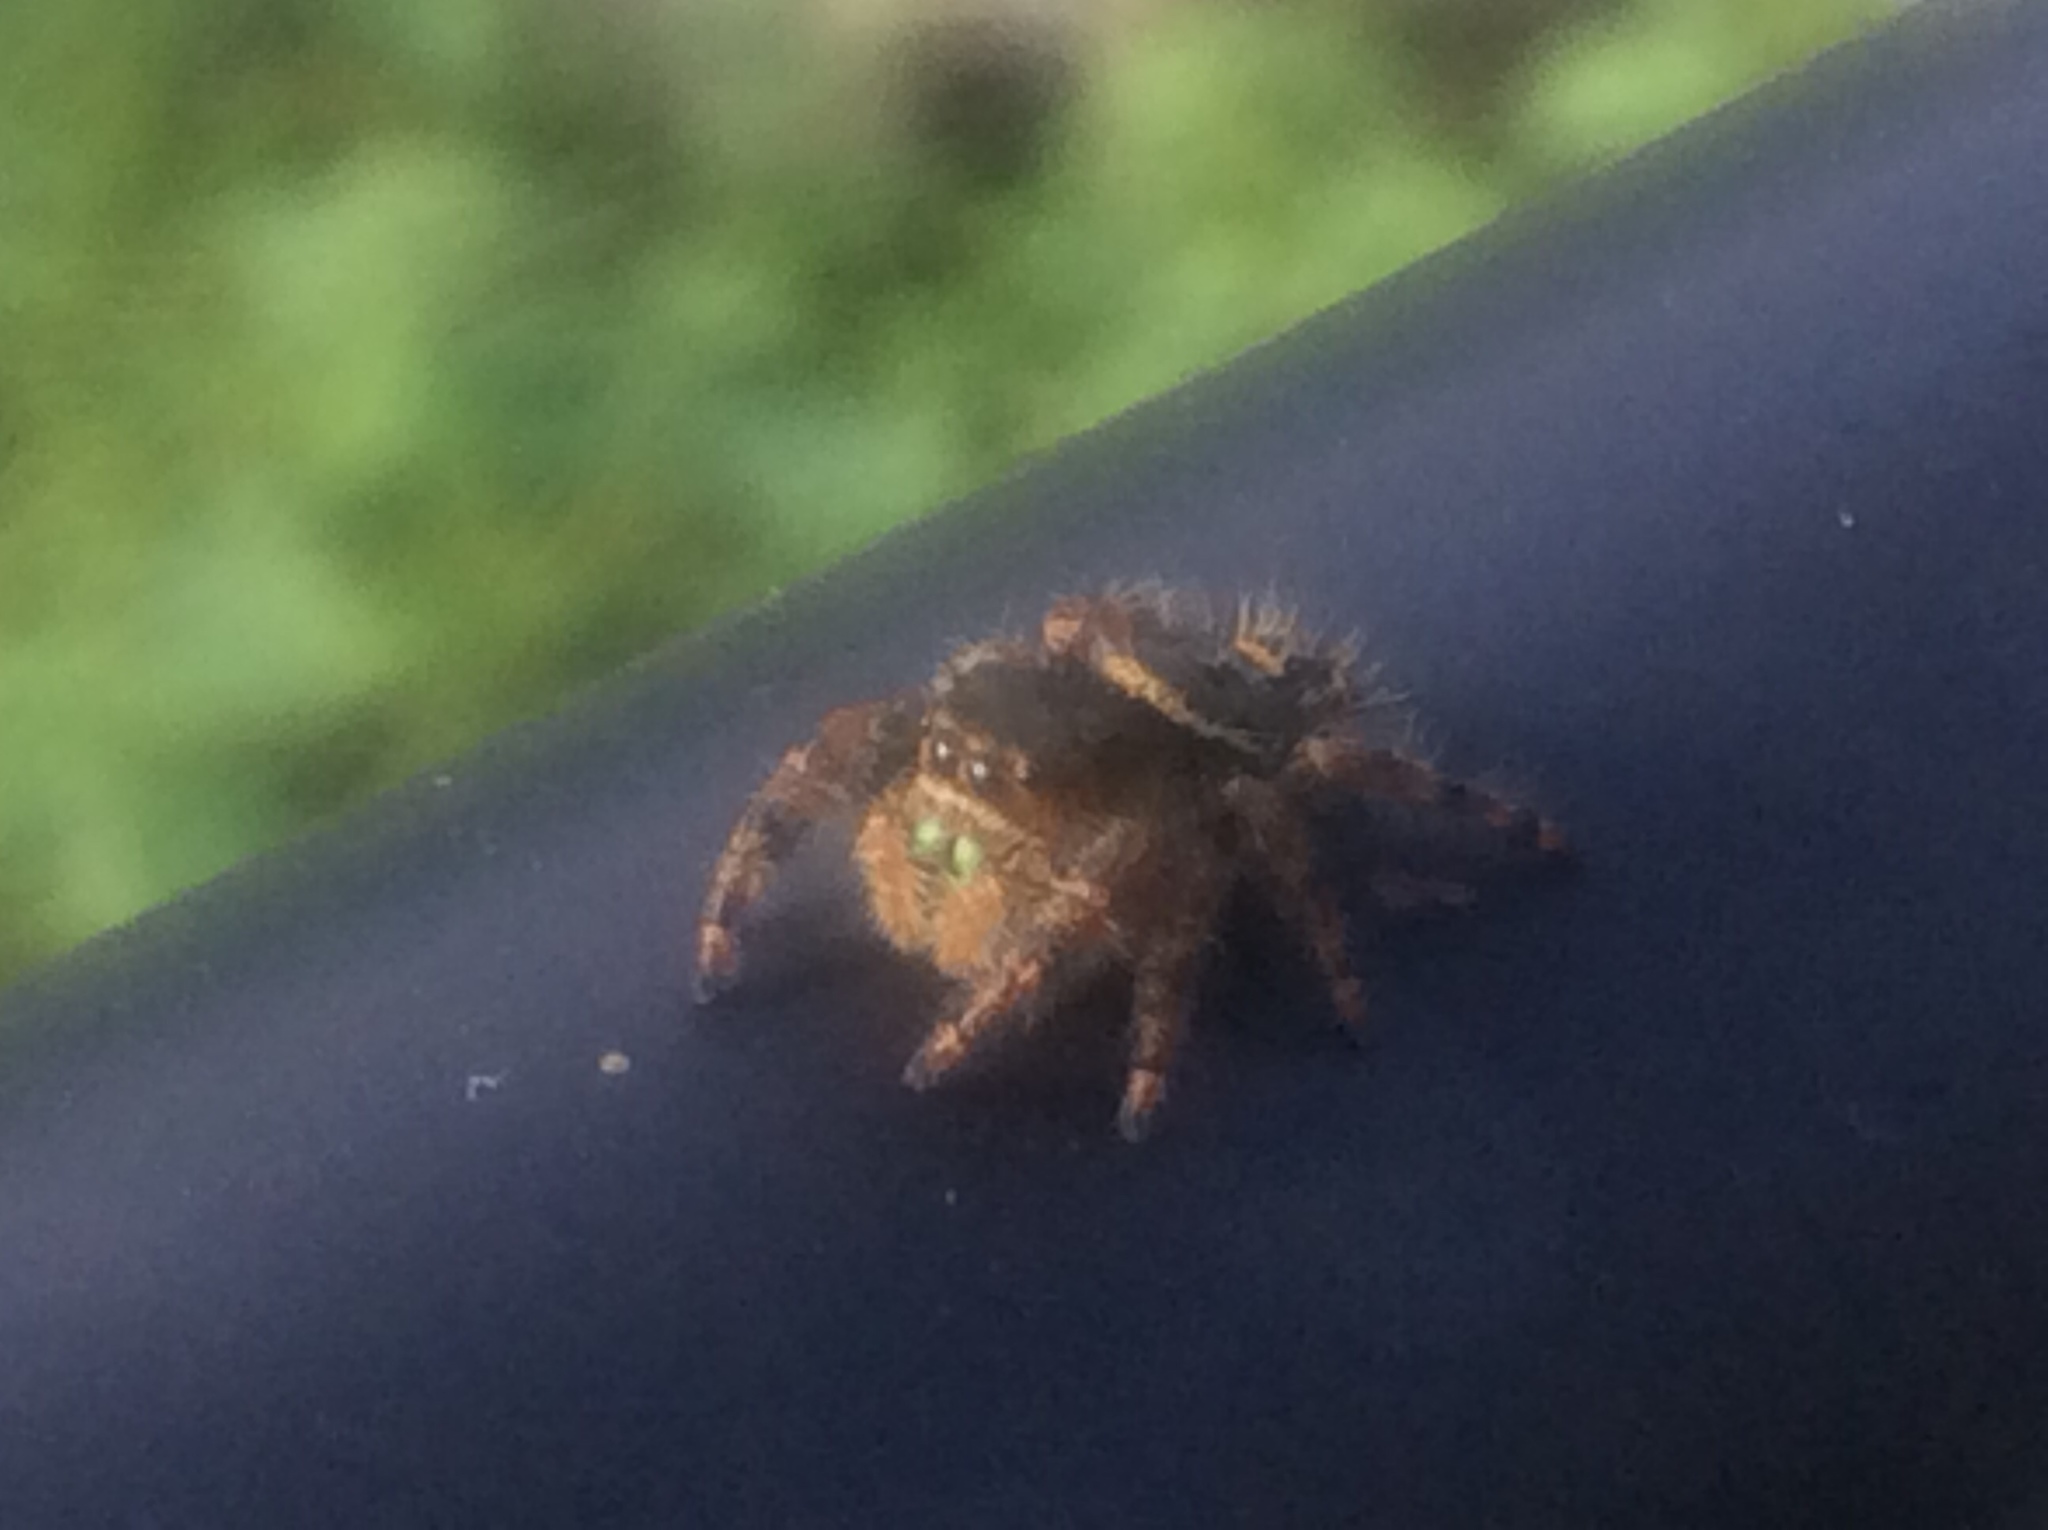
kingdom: Animalia
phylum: Arthropoda
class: Arachnida
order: Araneae
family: Salticidae
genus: Phidippus
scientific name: Phidippus audax
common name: Bold jumper
